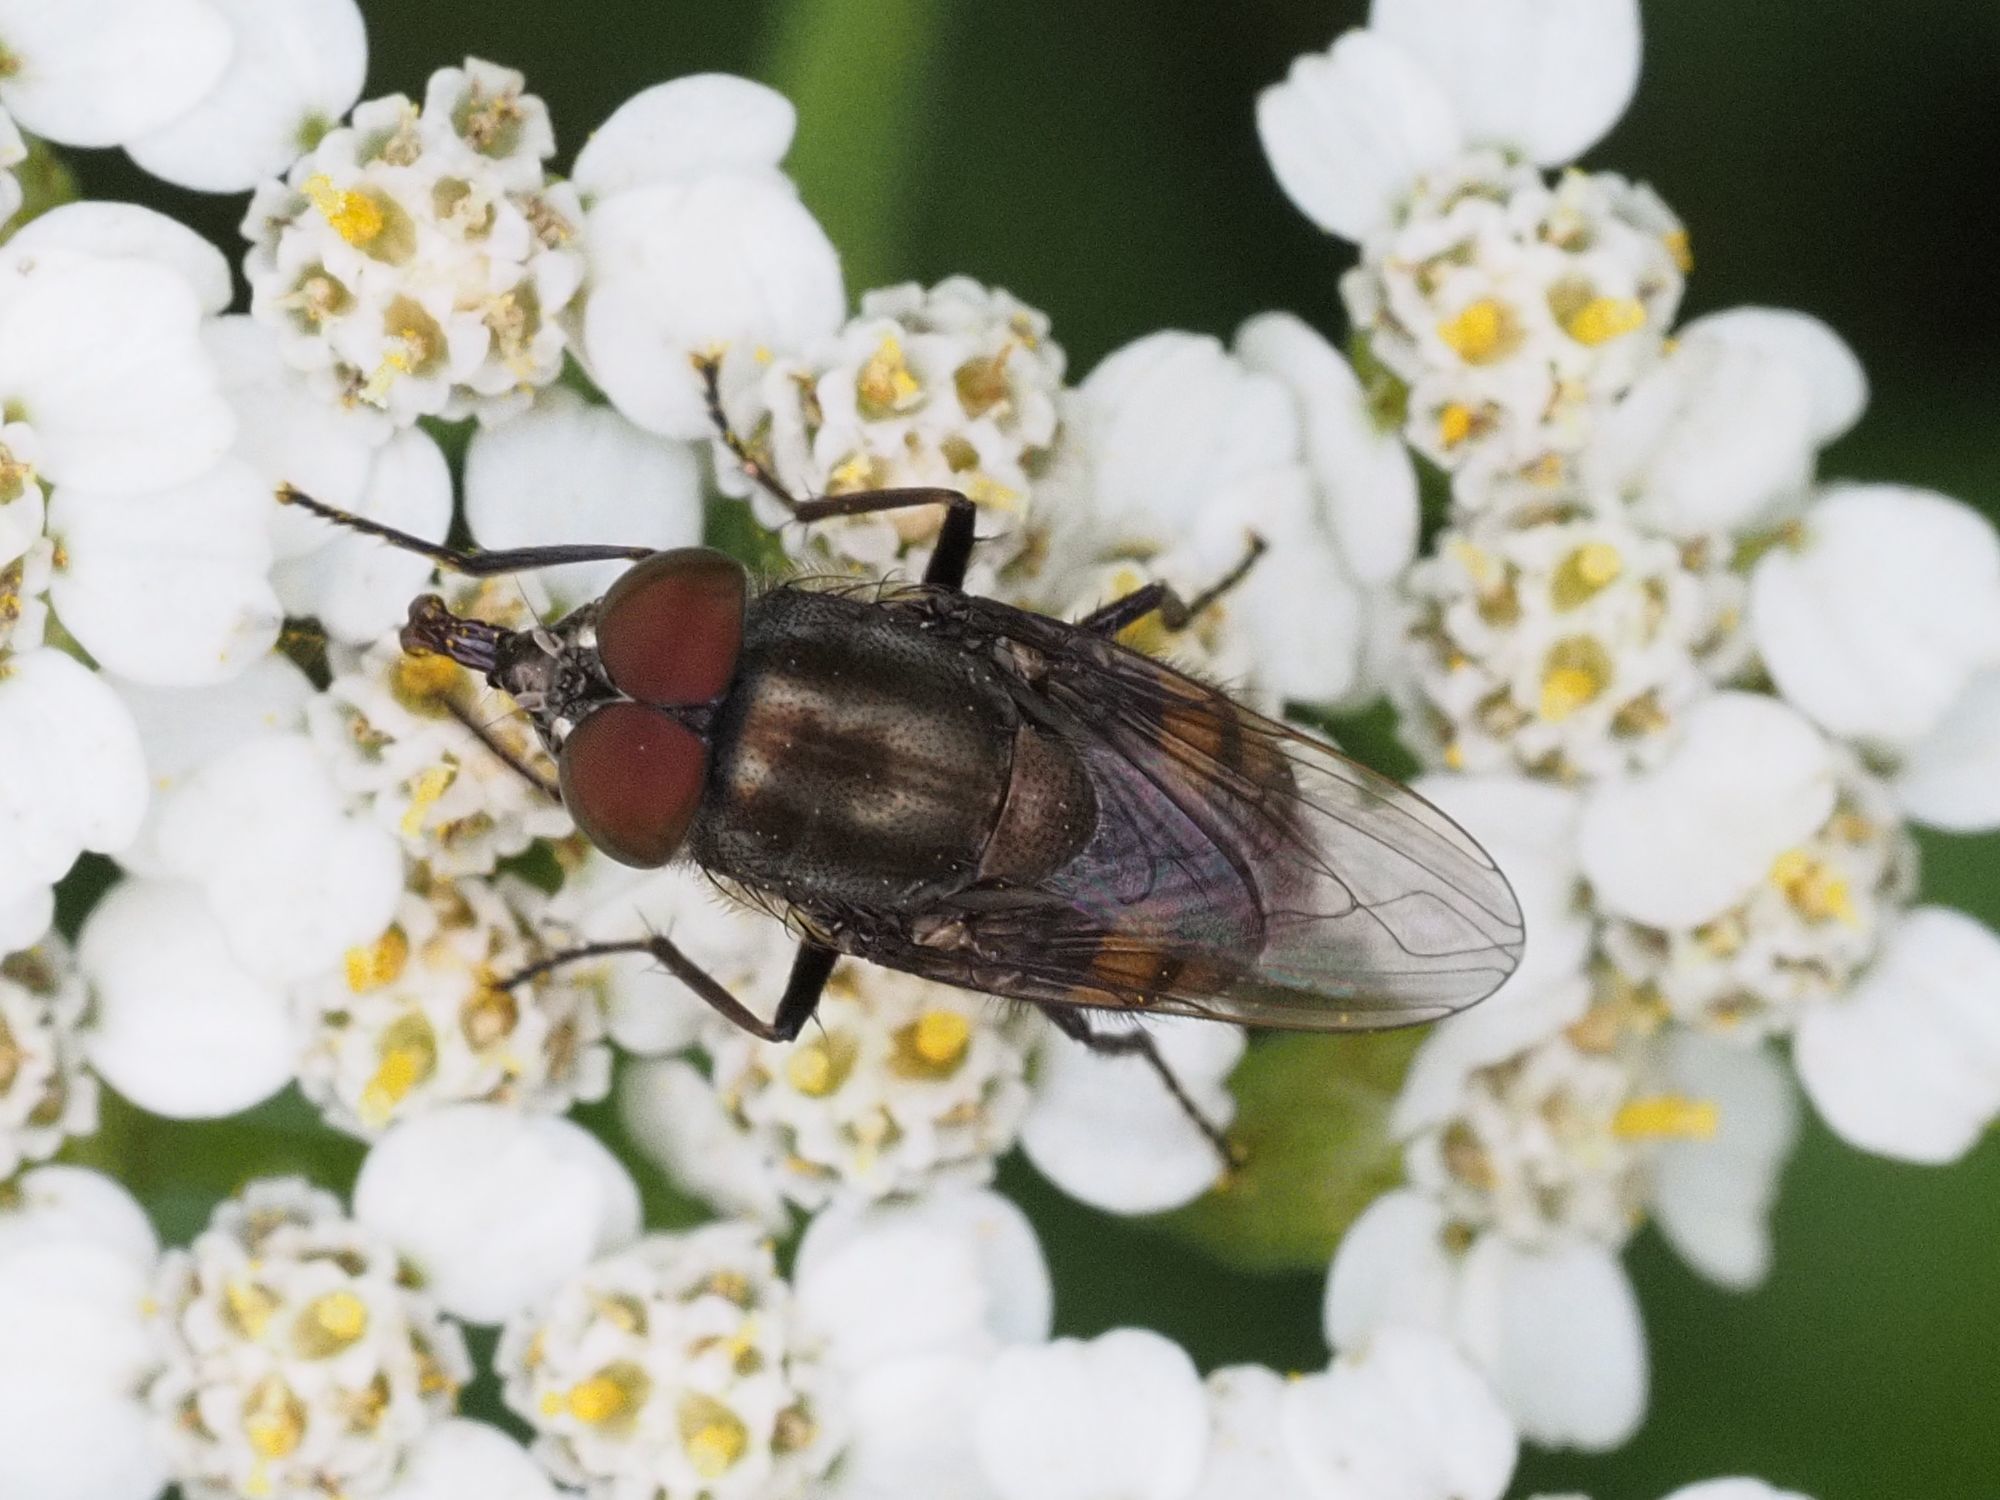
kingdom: Animalia
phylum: Arthropoda
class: Insecta
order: Diptera
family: Calliphoridae
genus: Stomorhina
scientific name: Stomorhina lunata
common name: Locust blowfly
